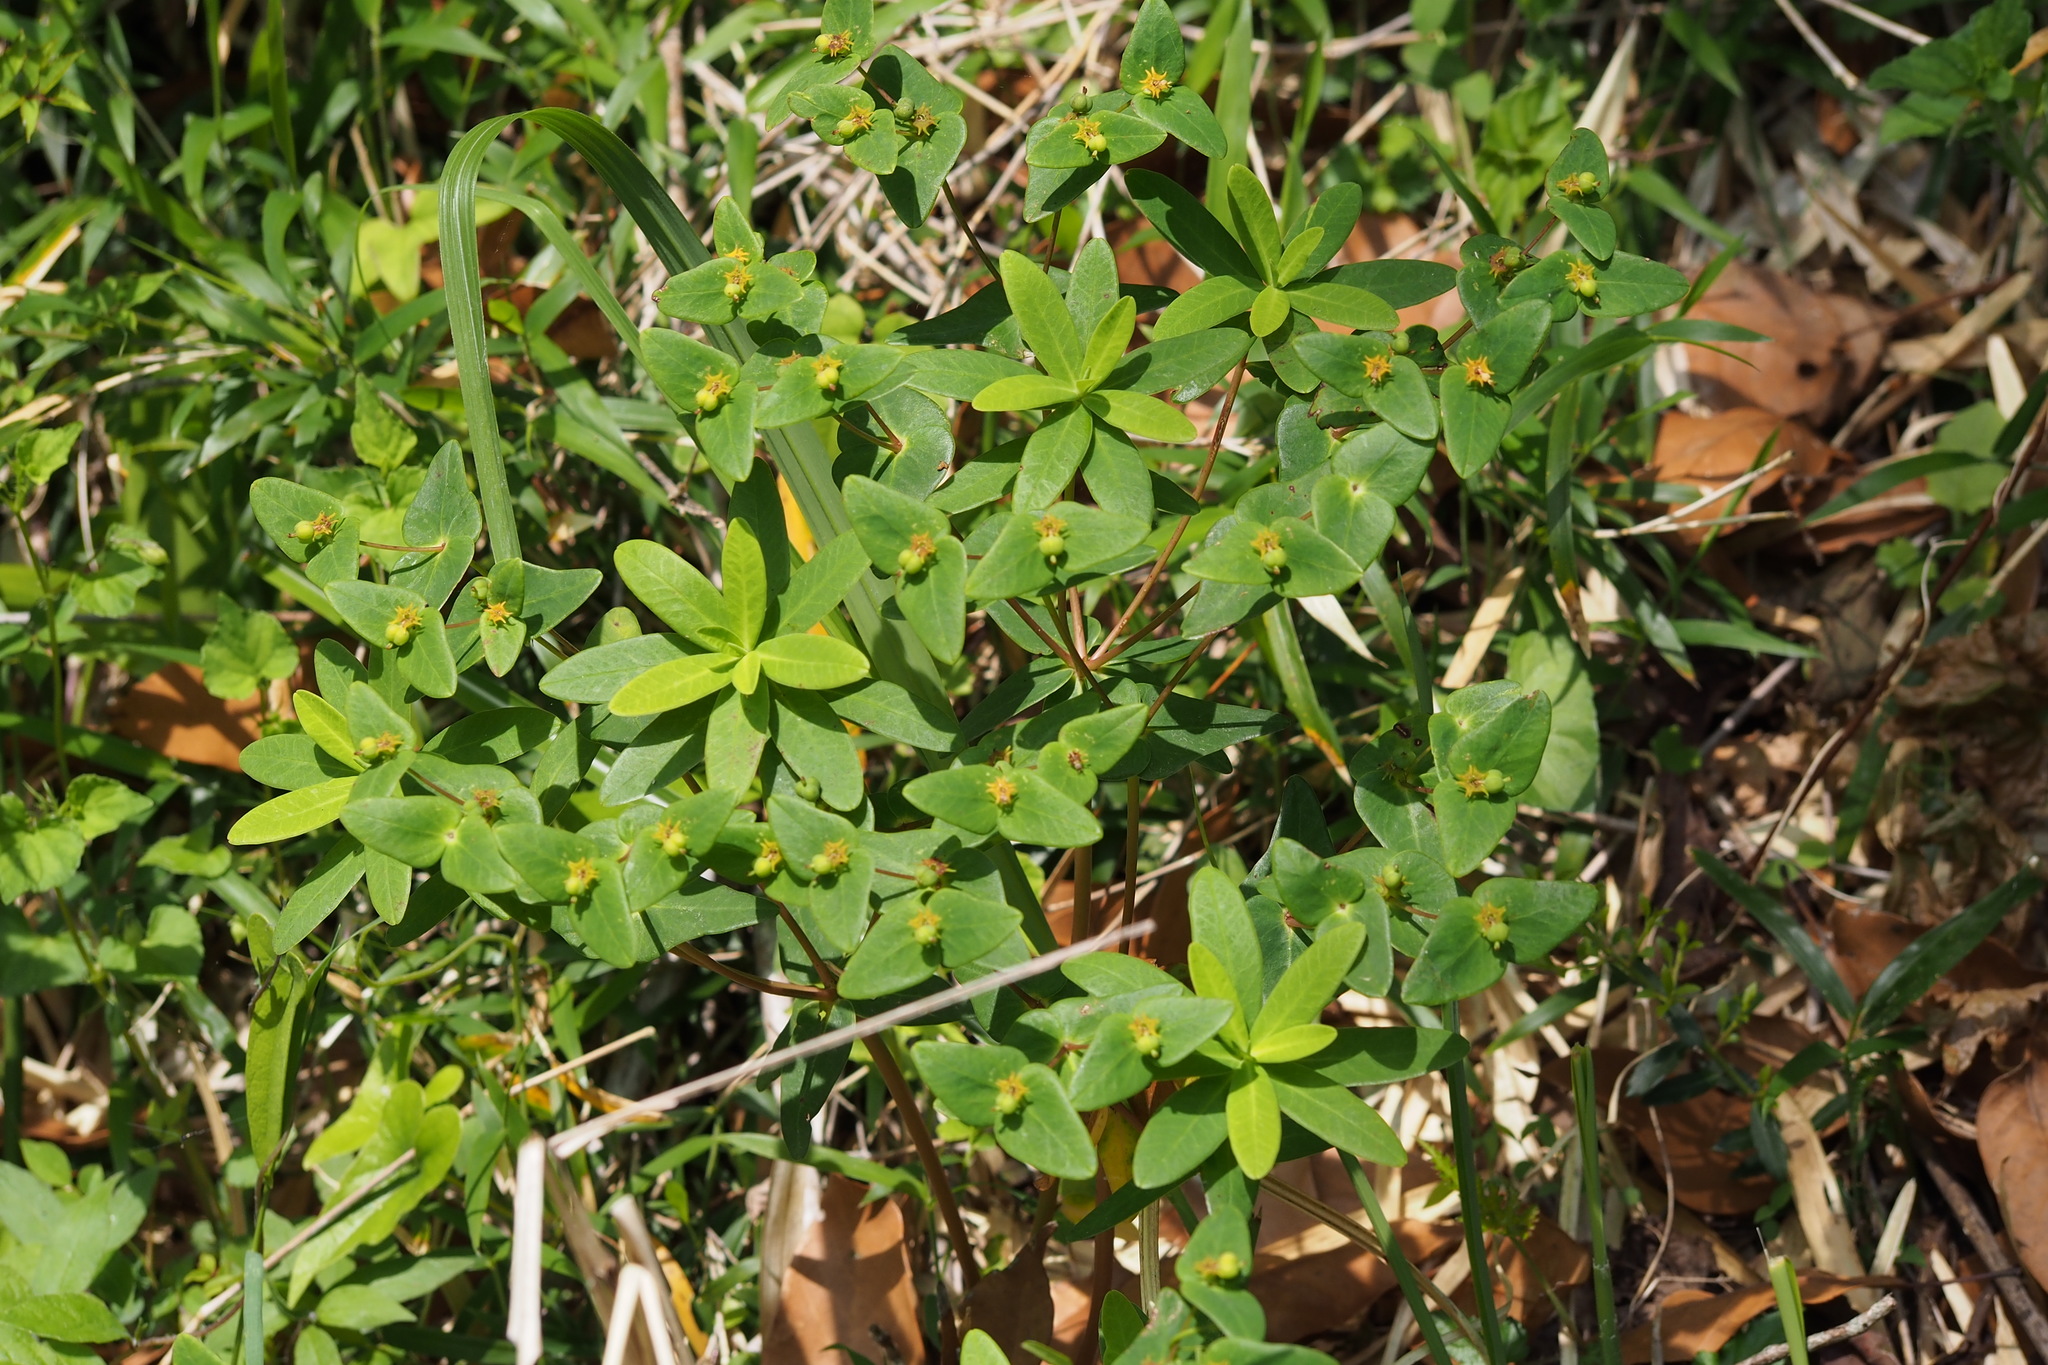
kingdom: Plantae
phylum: Tracheophyta
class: Magnoliopsida
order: Malpighiales
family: Euphorbiaceae
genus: Euphorbia
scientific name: Euphorbia sieboldiana
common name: Siebold's spurge
